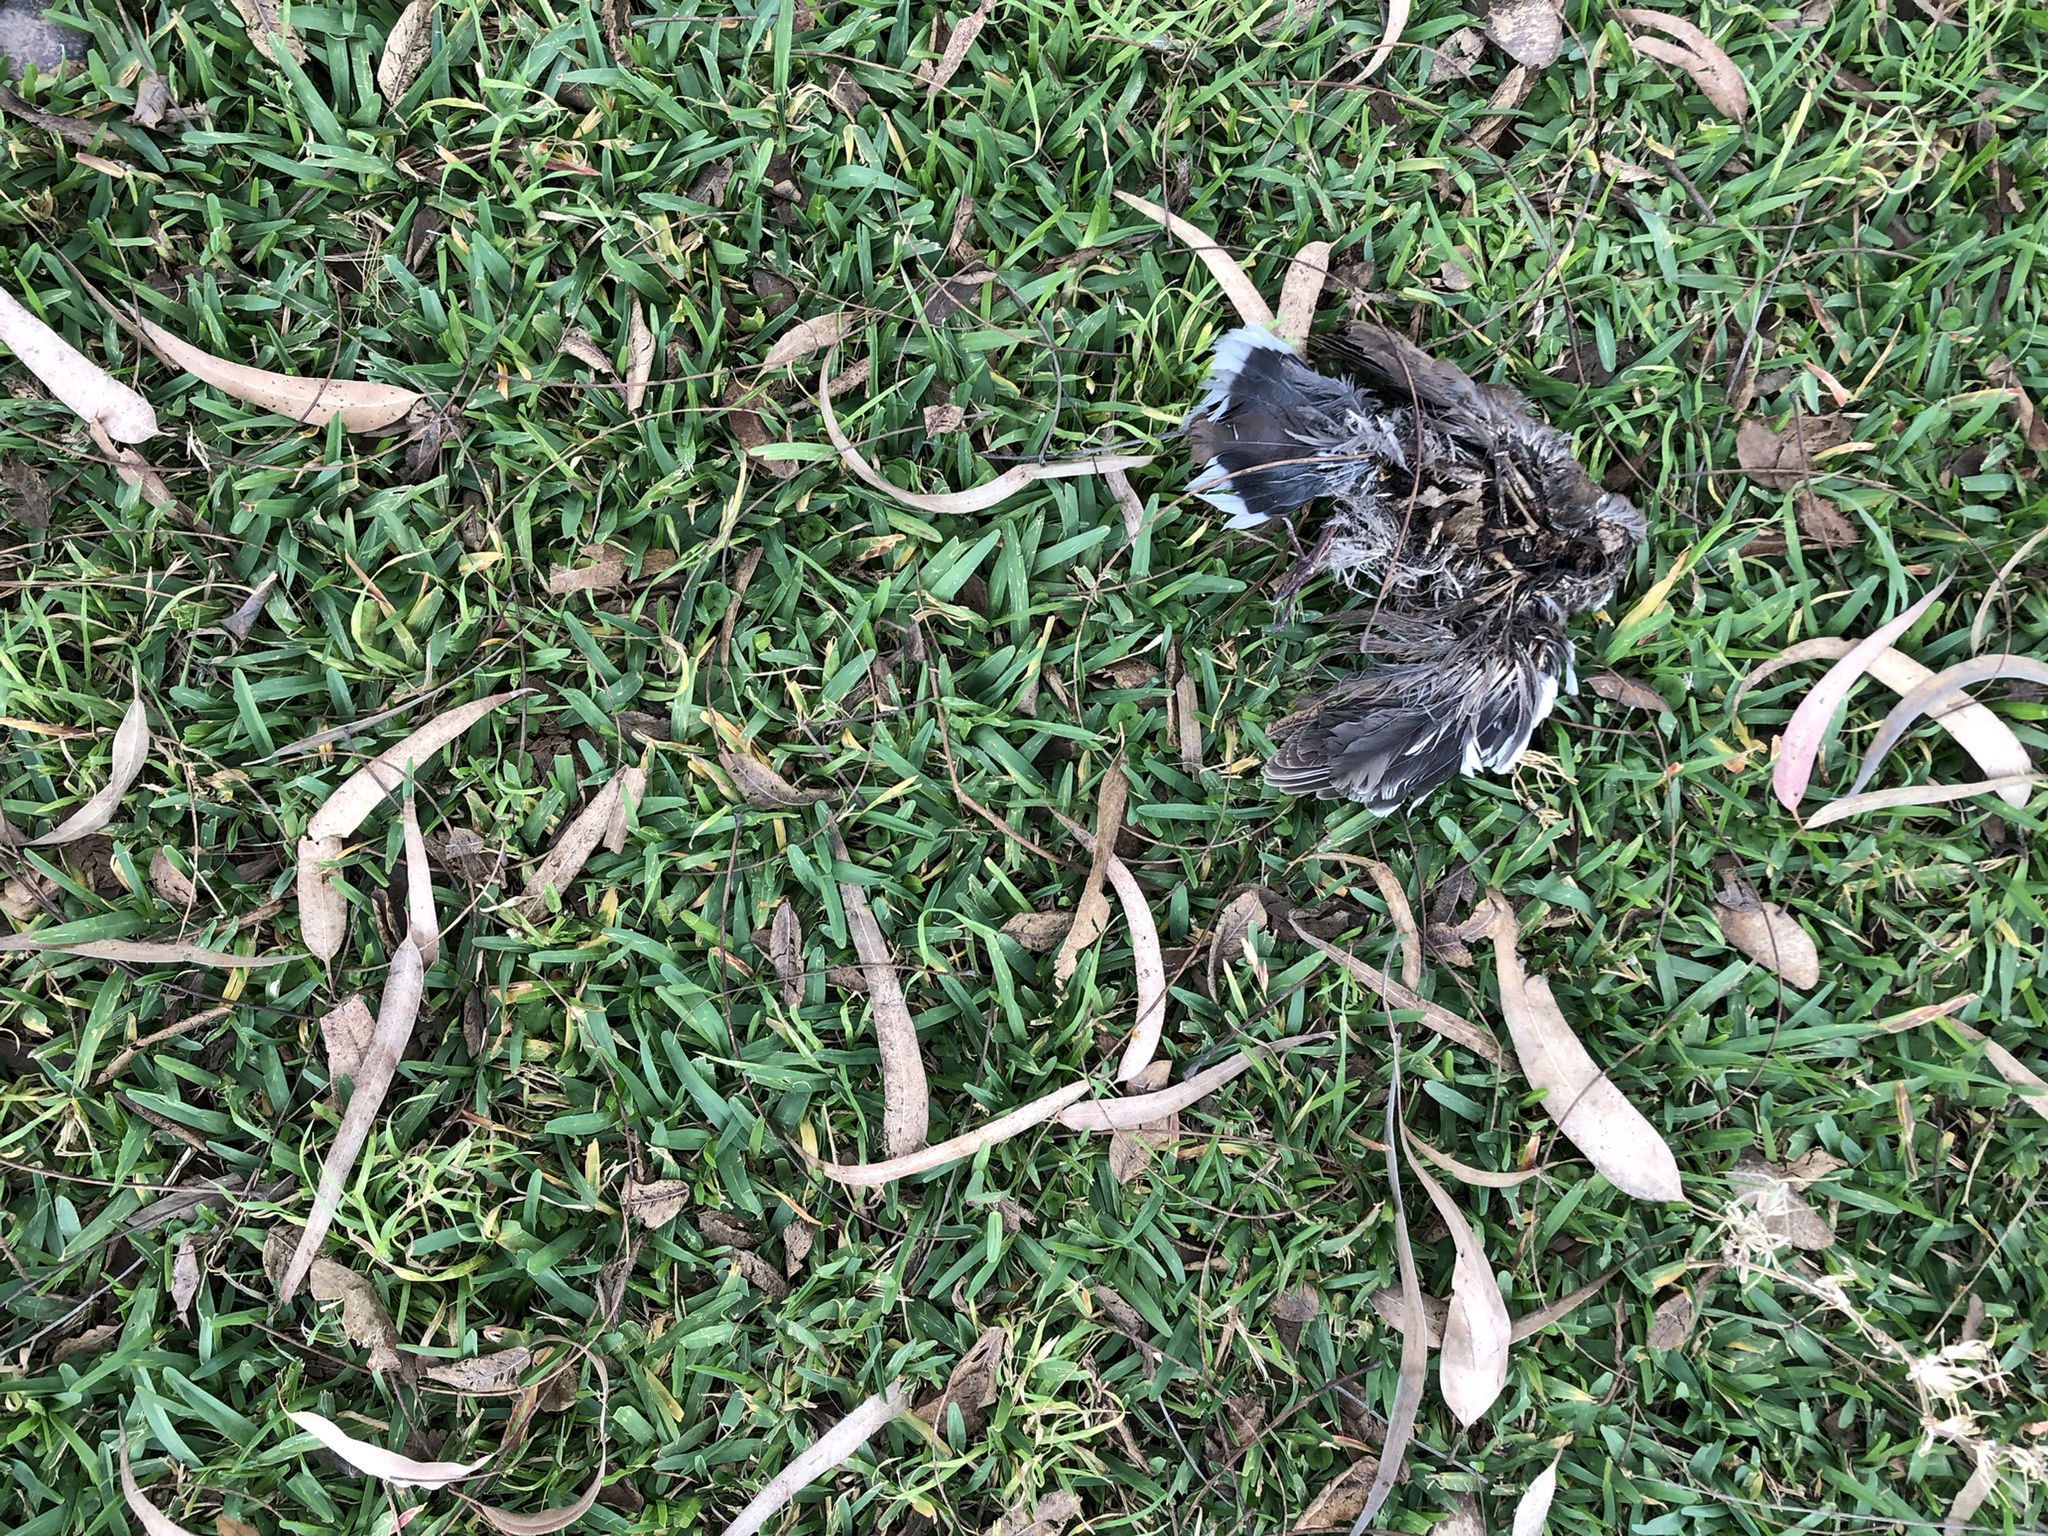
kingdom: Animalia
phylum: Chordata
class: Aves
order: Columbiformes
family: Columbidae
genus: Zenaida
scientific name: Zenaida meloda
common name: West peruvian dove
